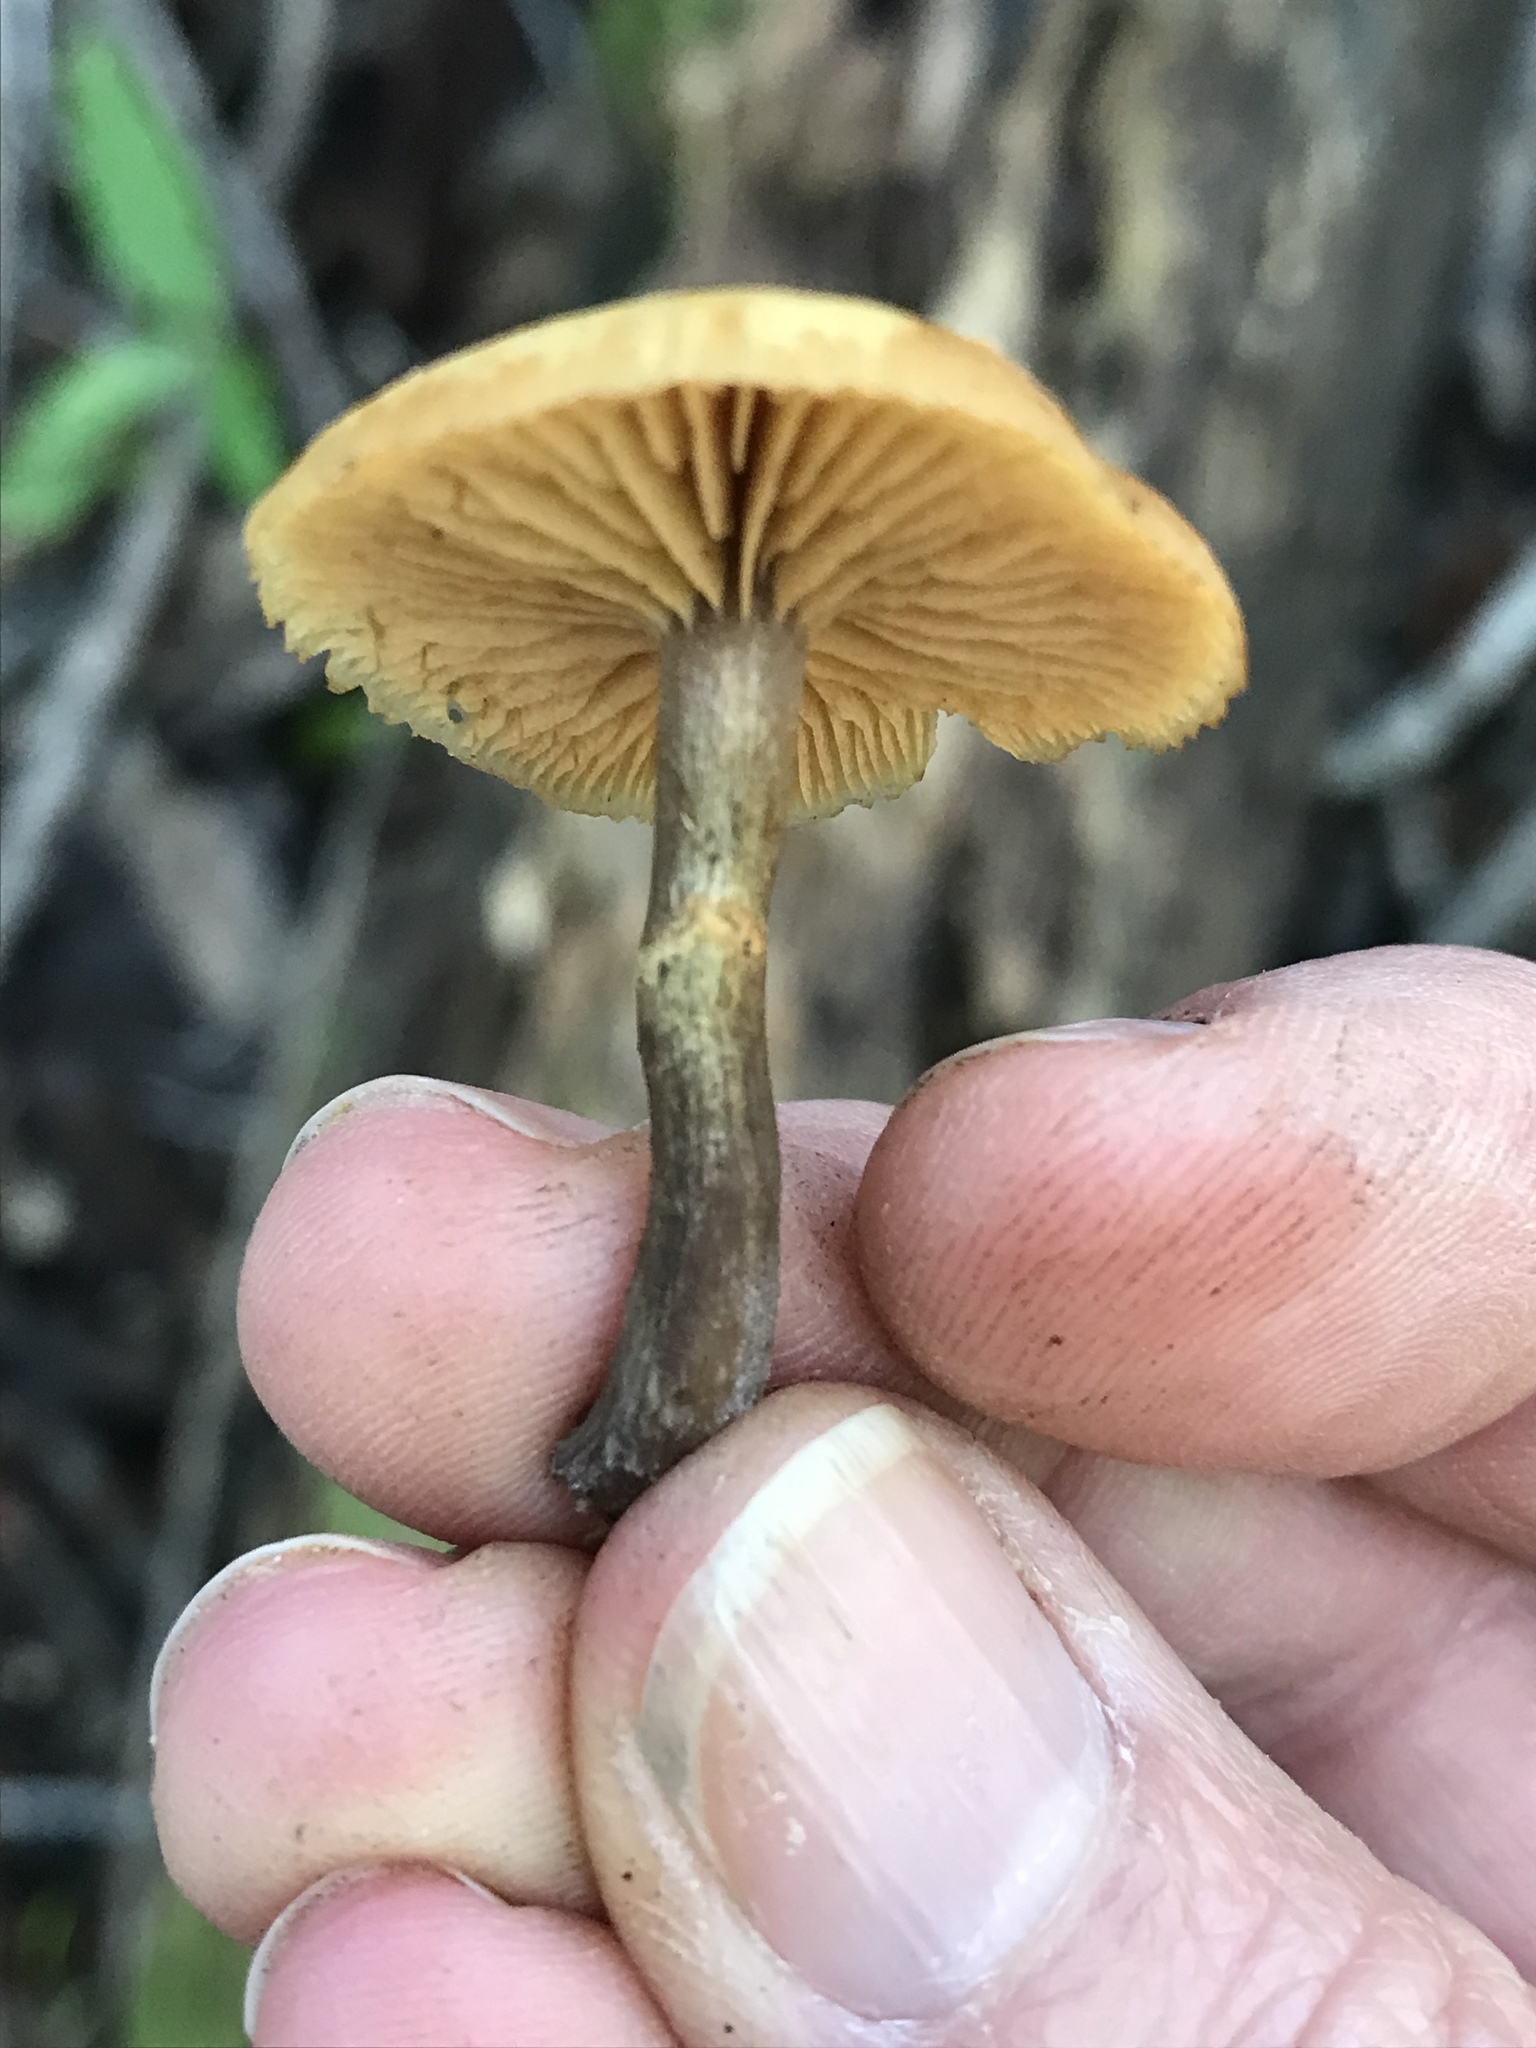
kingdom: Fungi
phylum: Basidiomycota
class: Agaricomycetes
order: Agaricales
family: Hymenogastraceae
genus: Galerina
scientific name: Galerina marginata
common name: Funeral bell
